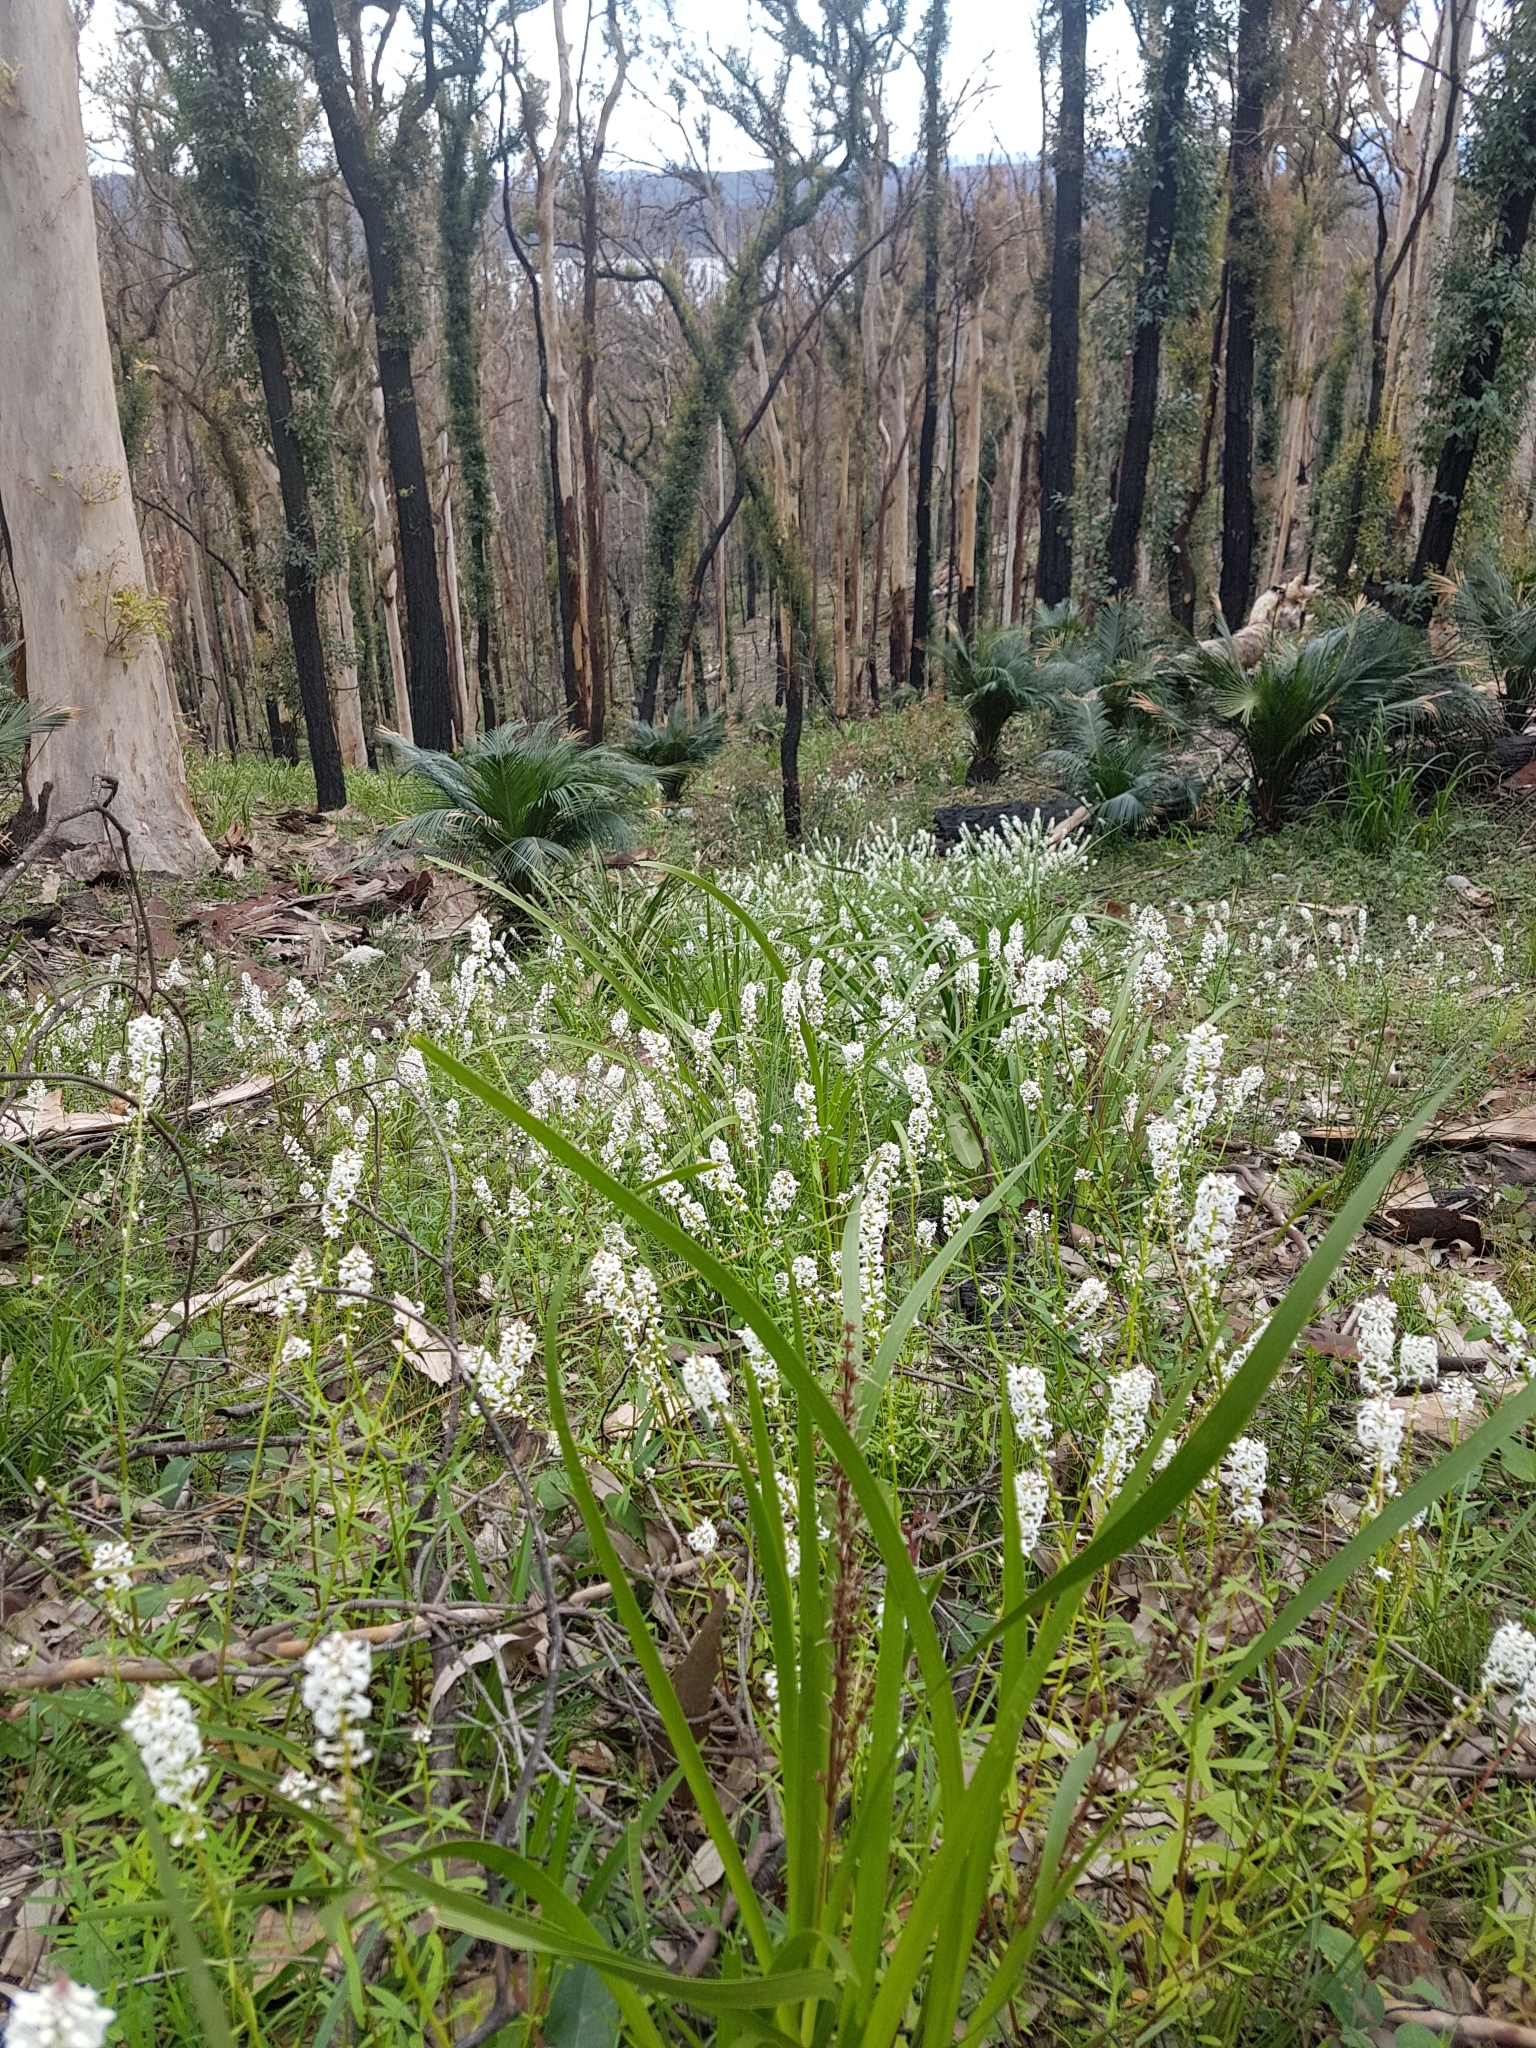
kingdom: Plantae
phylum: Tracheophyta
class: Magnoliopsida
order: Celastrales
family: Celastraceae
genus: Stackhousia
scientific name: Stackhousia monogyna
